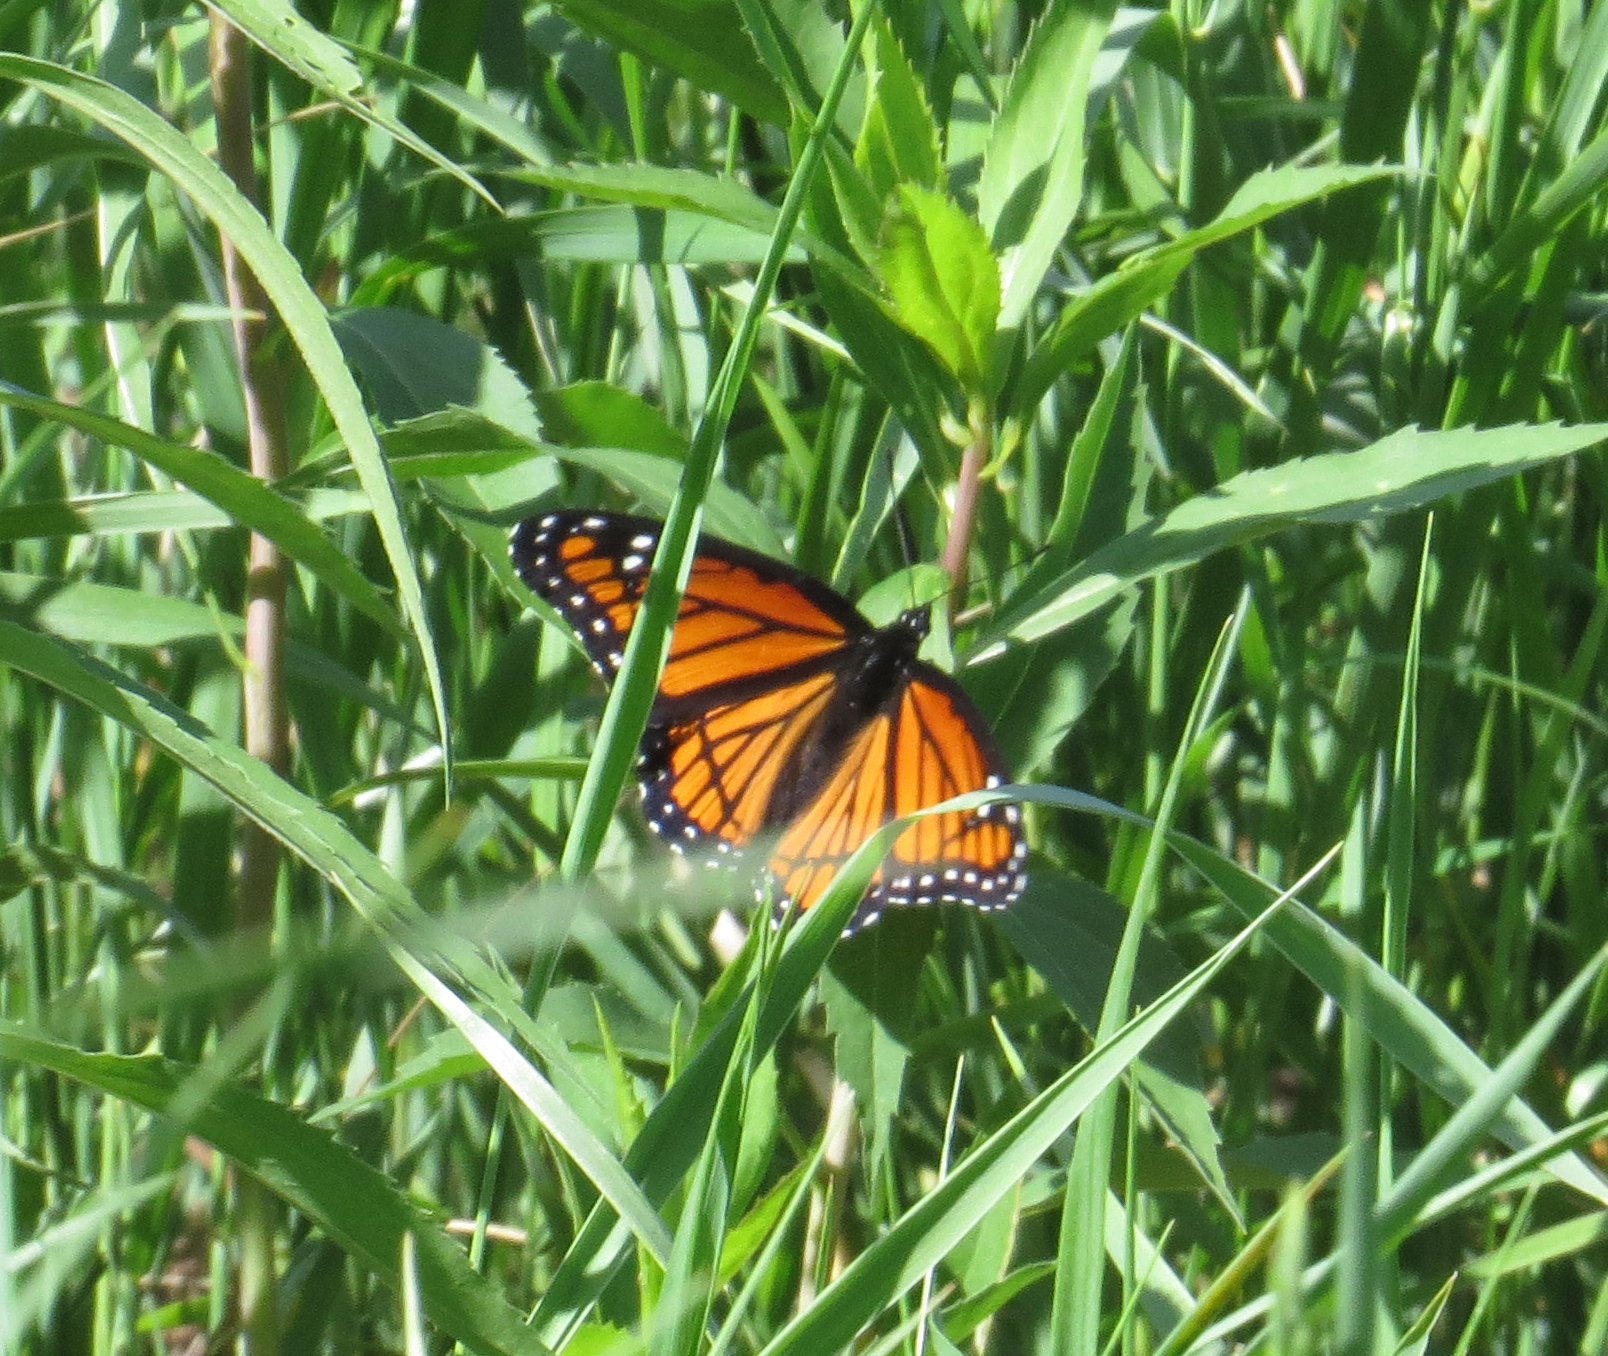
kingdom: Animalia
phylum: Arthropoda
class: Insecta
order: Lepidoptera
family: Nymphalidae
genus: Limenitis
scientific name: Limenitis archippus
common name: Viceroy
